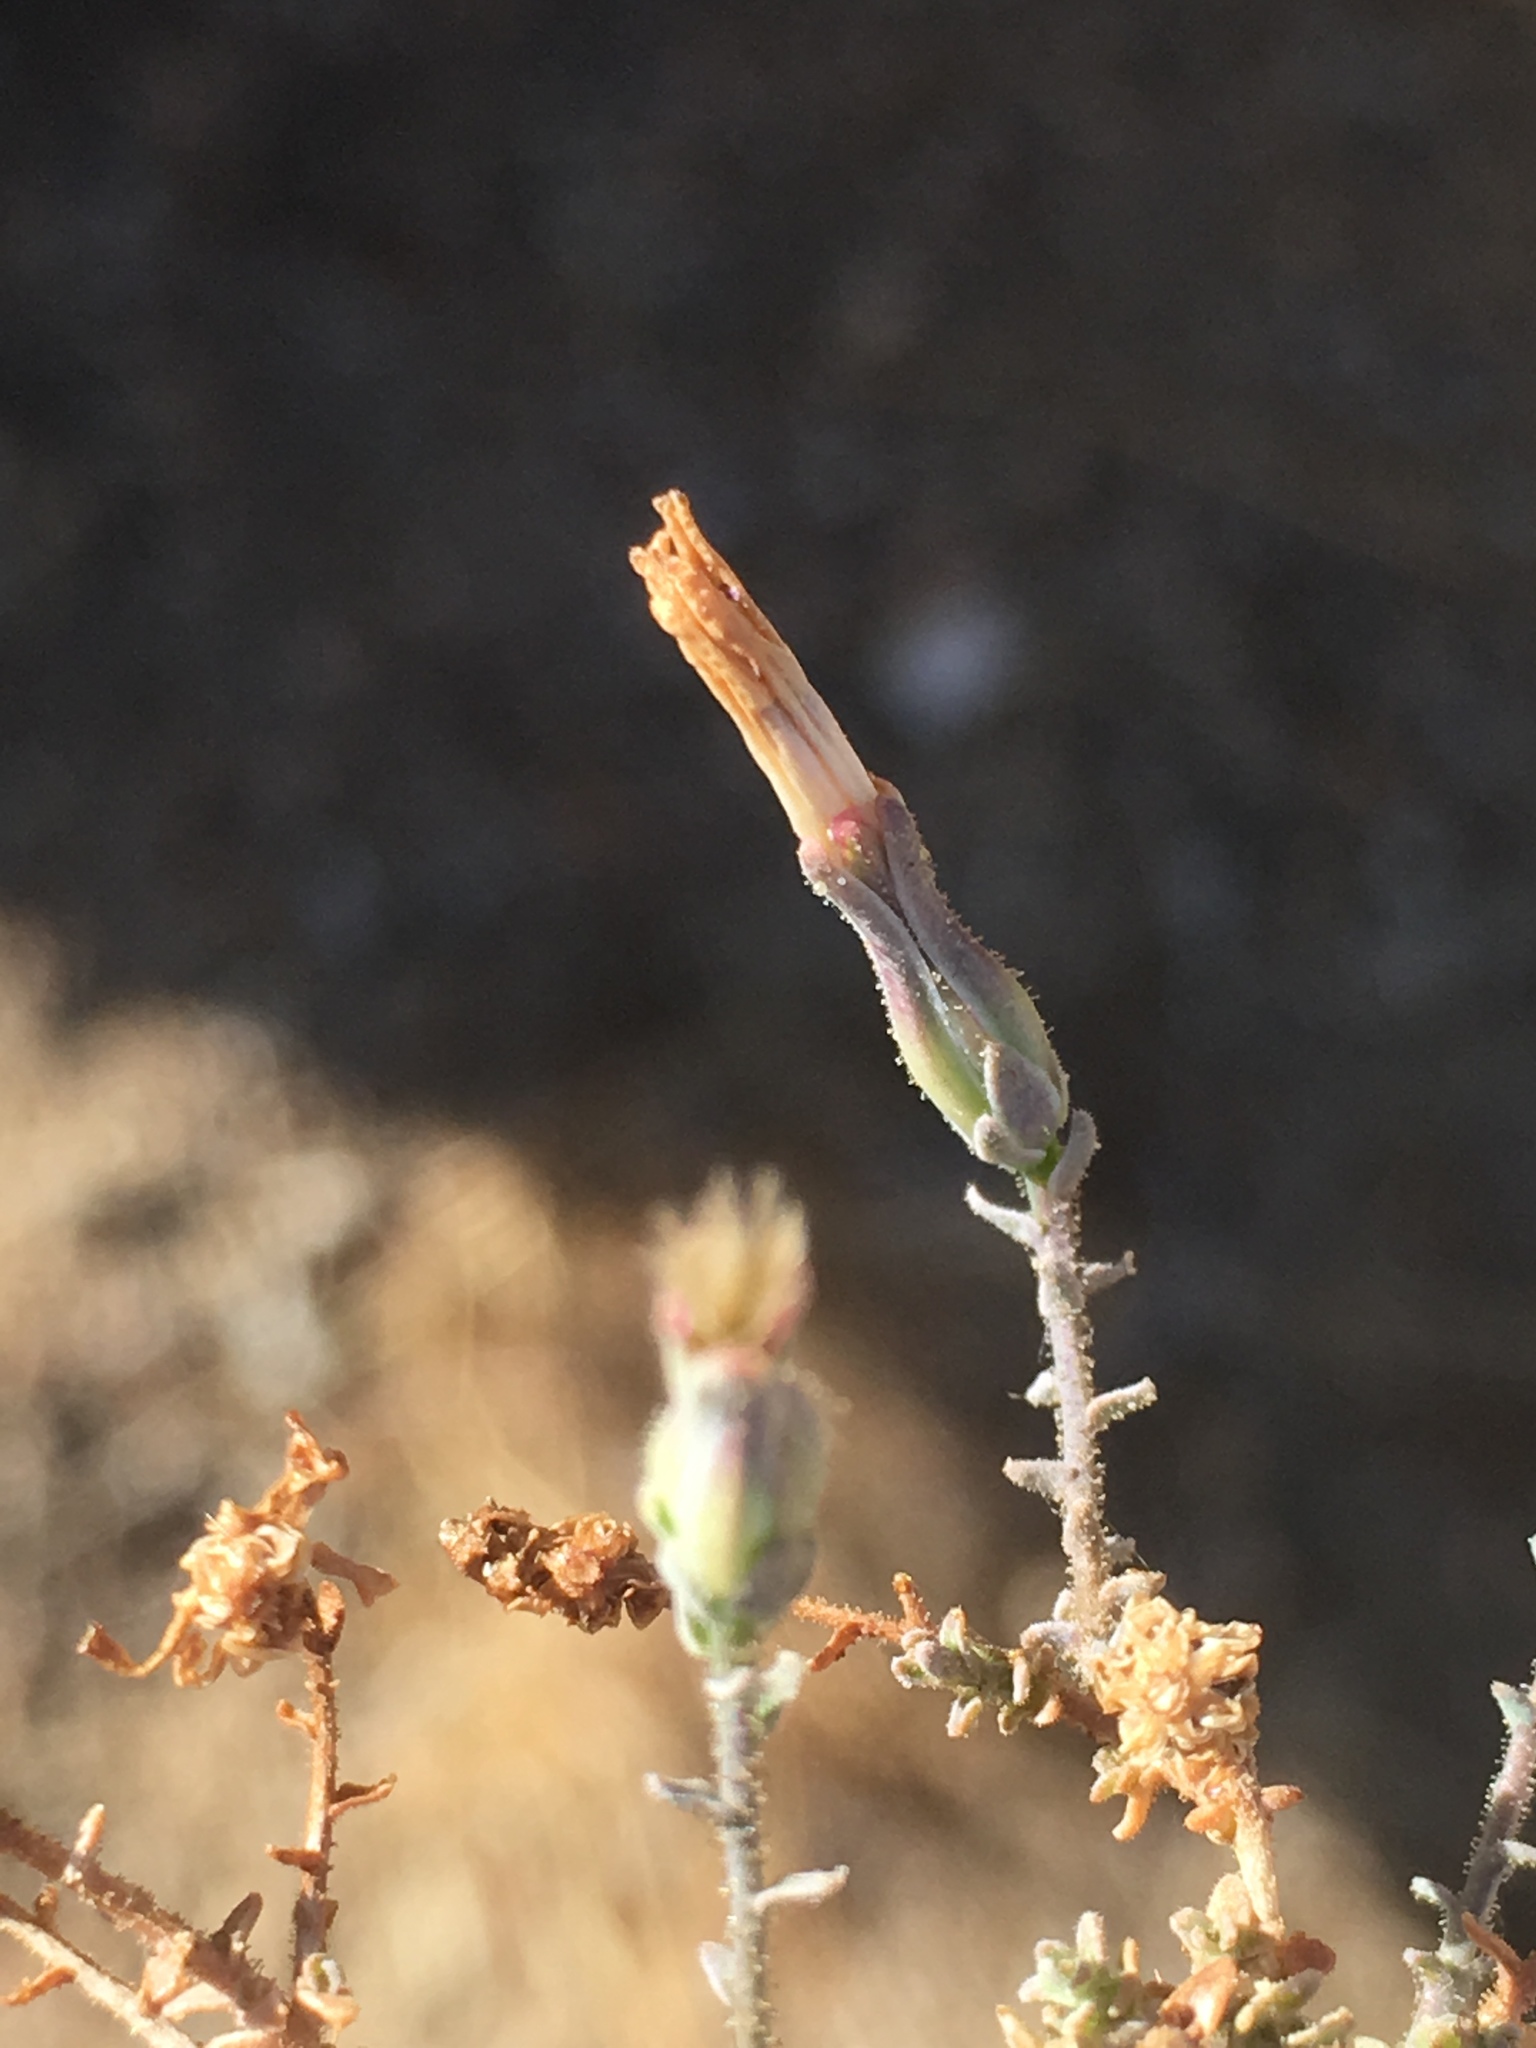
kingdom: Plantae
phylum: Tracheophyta
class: Magnoliopsida
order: Asterales
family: Asteraceae
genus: Stephanomeria
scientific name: Stephanomeria exigua
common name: Small wirelettuce
